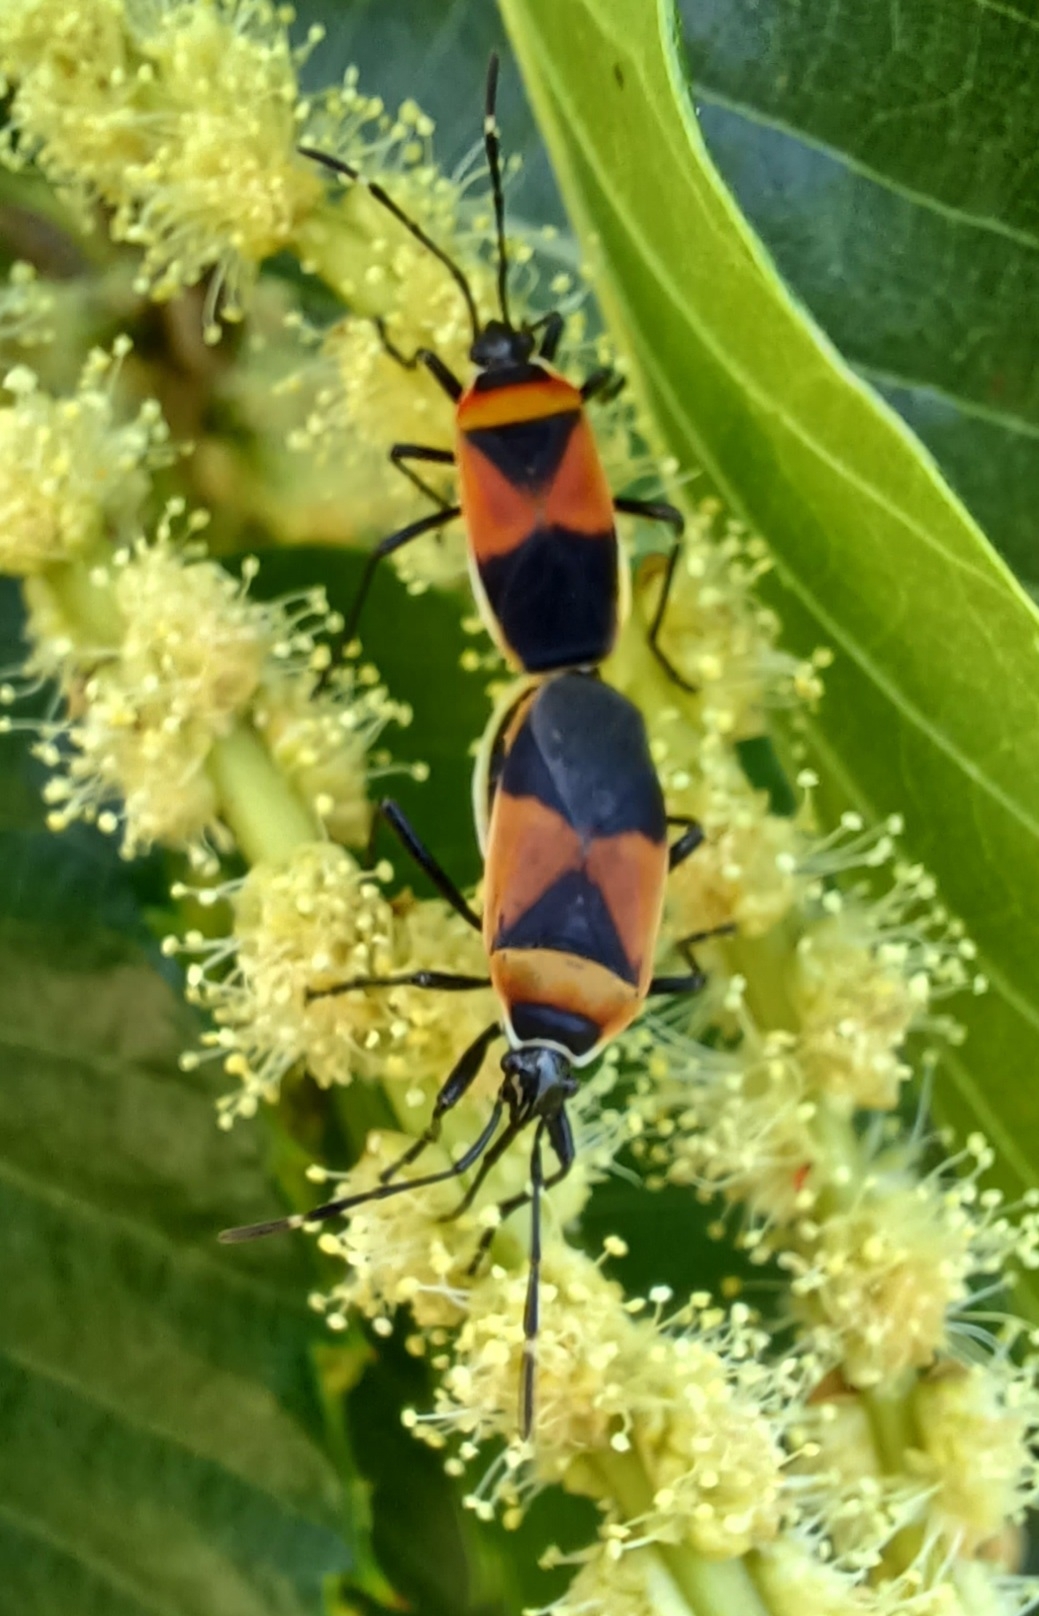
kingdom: Animalia
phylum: Arthropoda
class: Insecta
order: Hemiptera
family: Pyrrhocoridae
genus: Dindymus
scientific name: Dindymus
